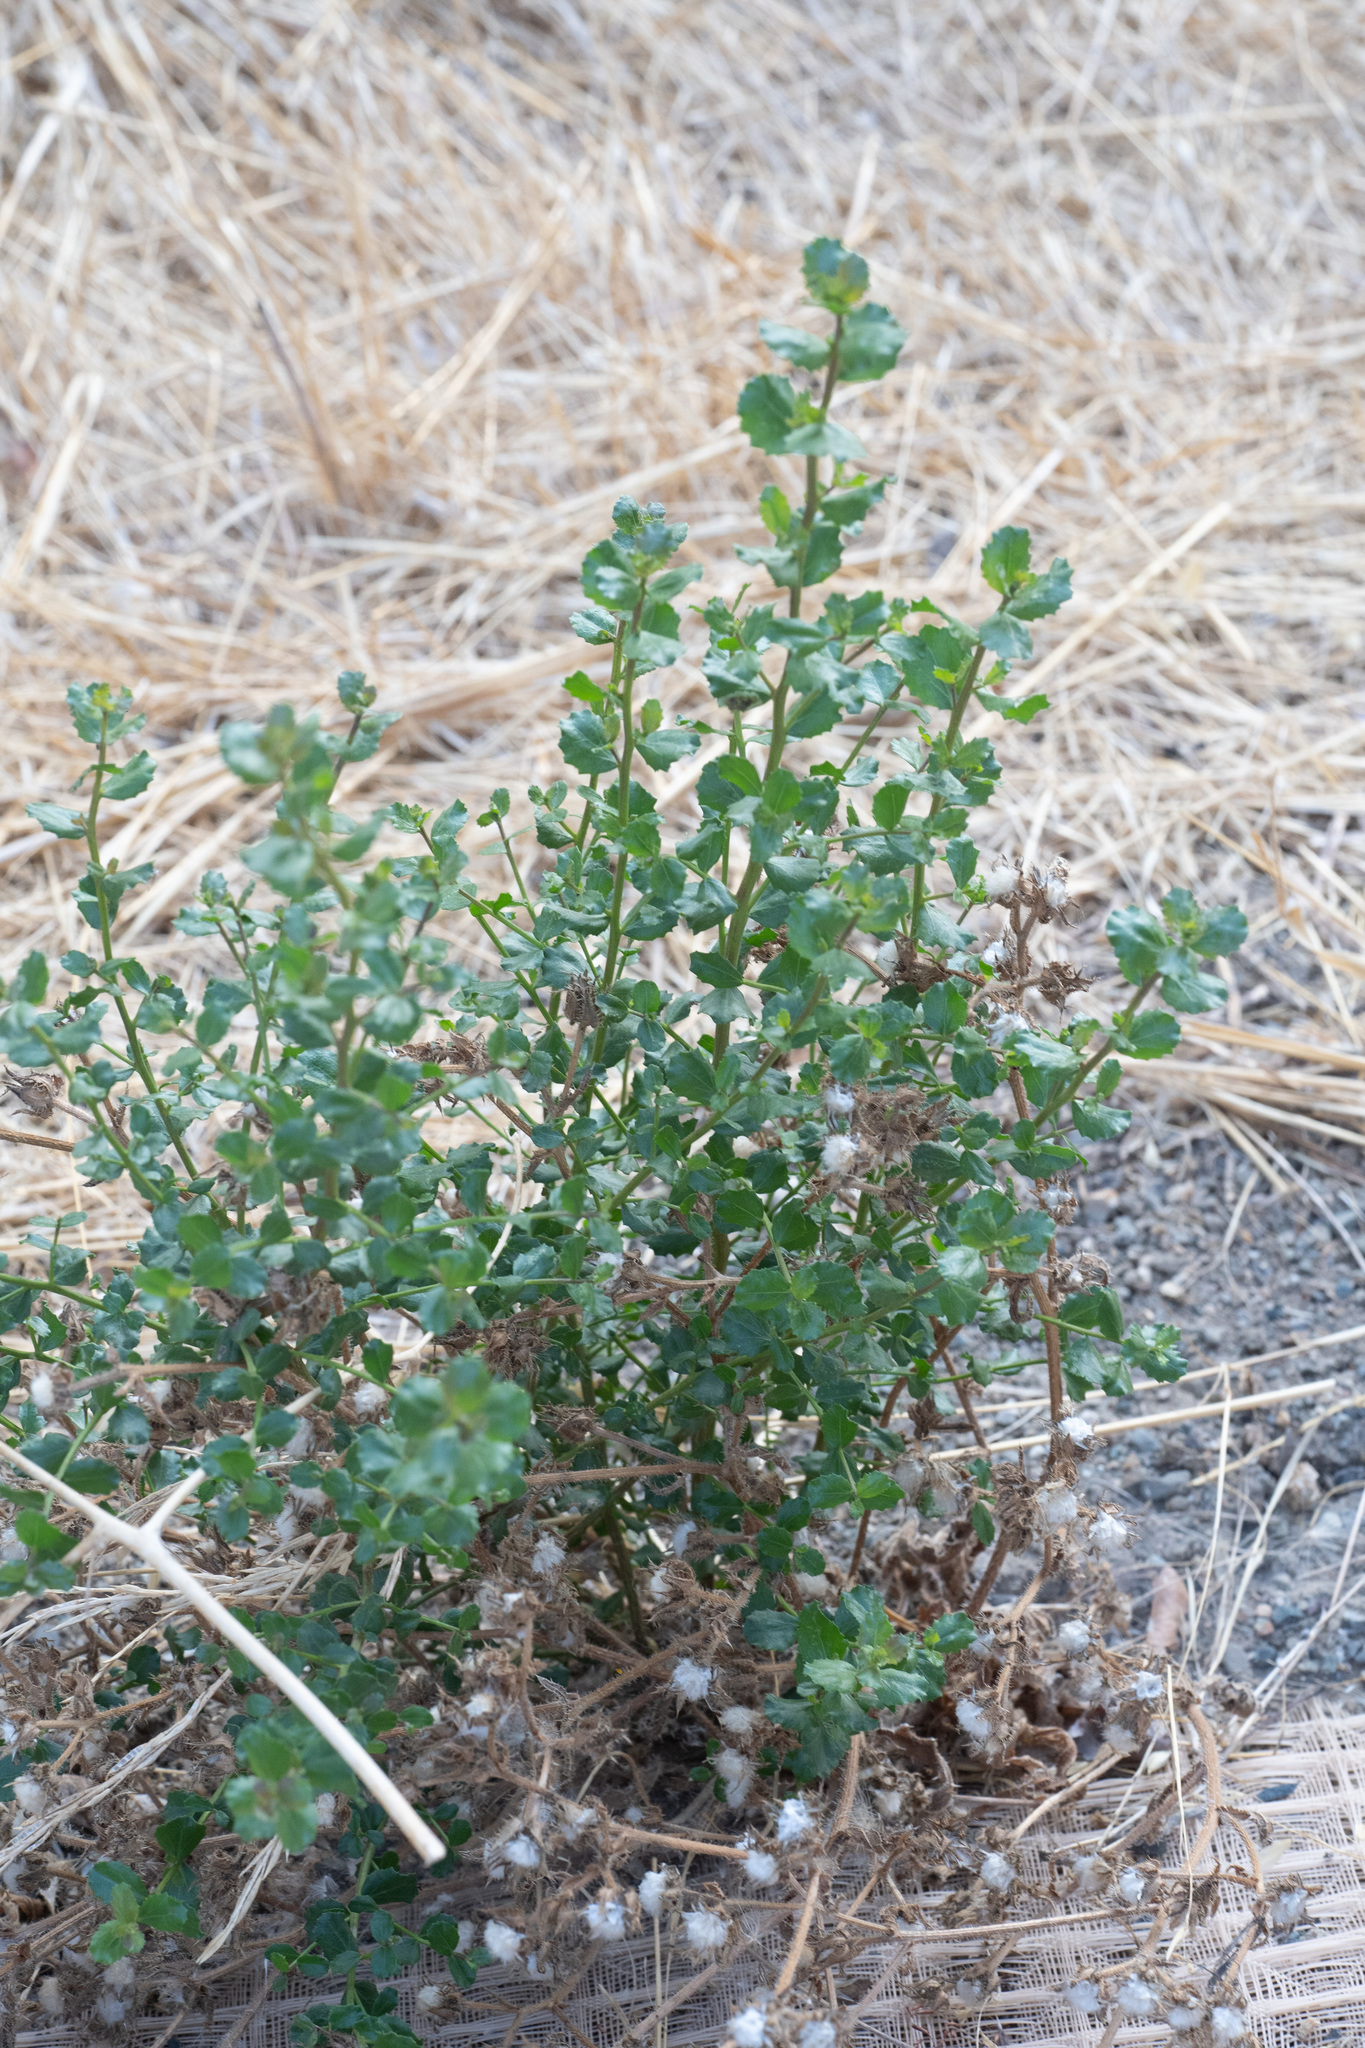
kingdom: Plantae
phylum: Tracheophyta
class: Magnoliopsida
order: Asterales
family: Asteraceae
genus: Baccharis
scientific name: Baccharis pilularis
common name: Coyotebrush
